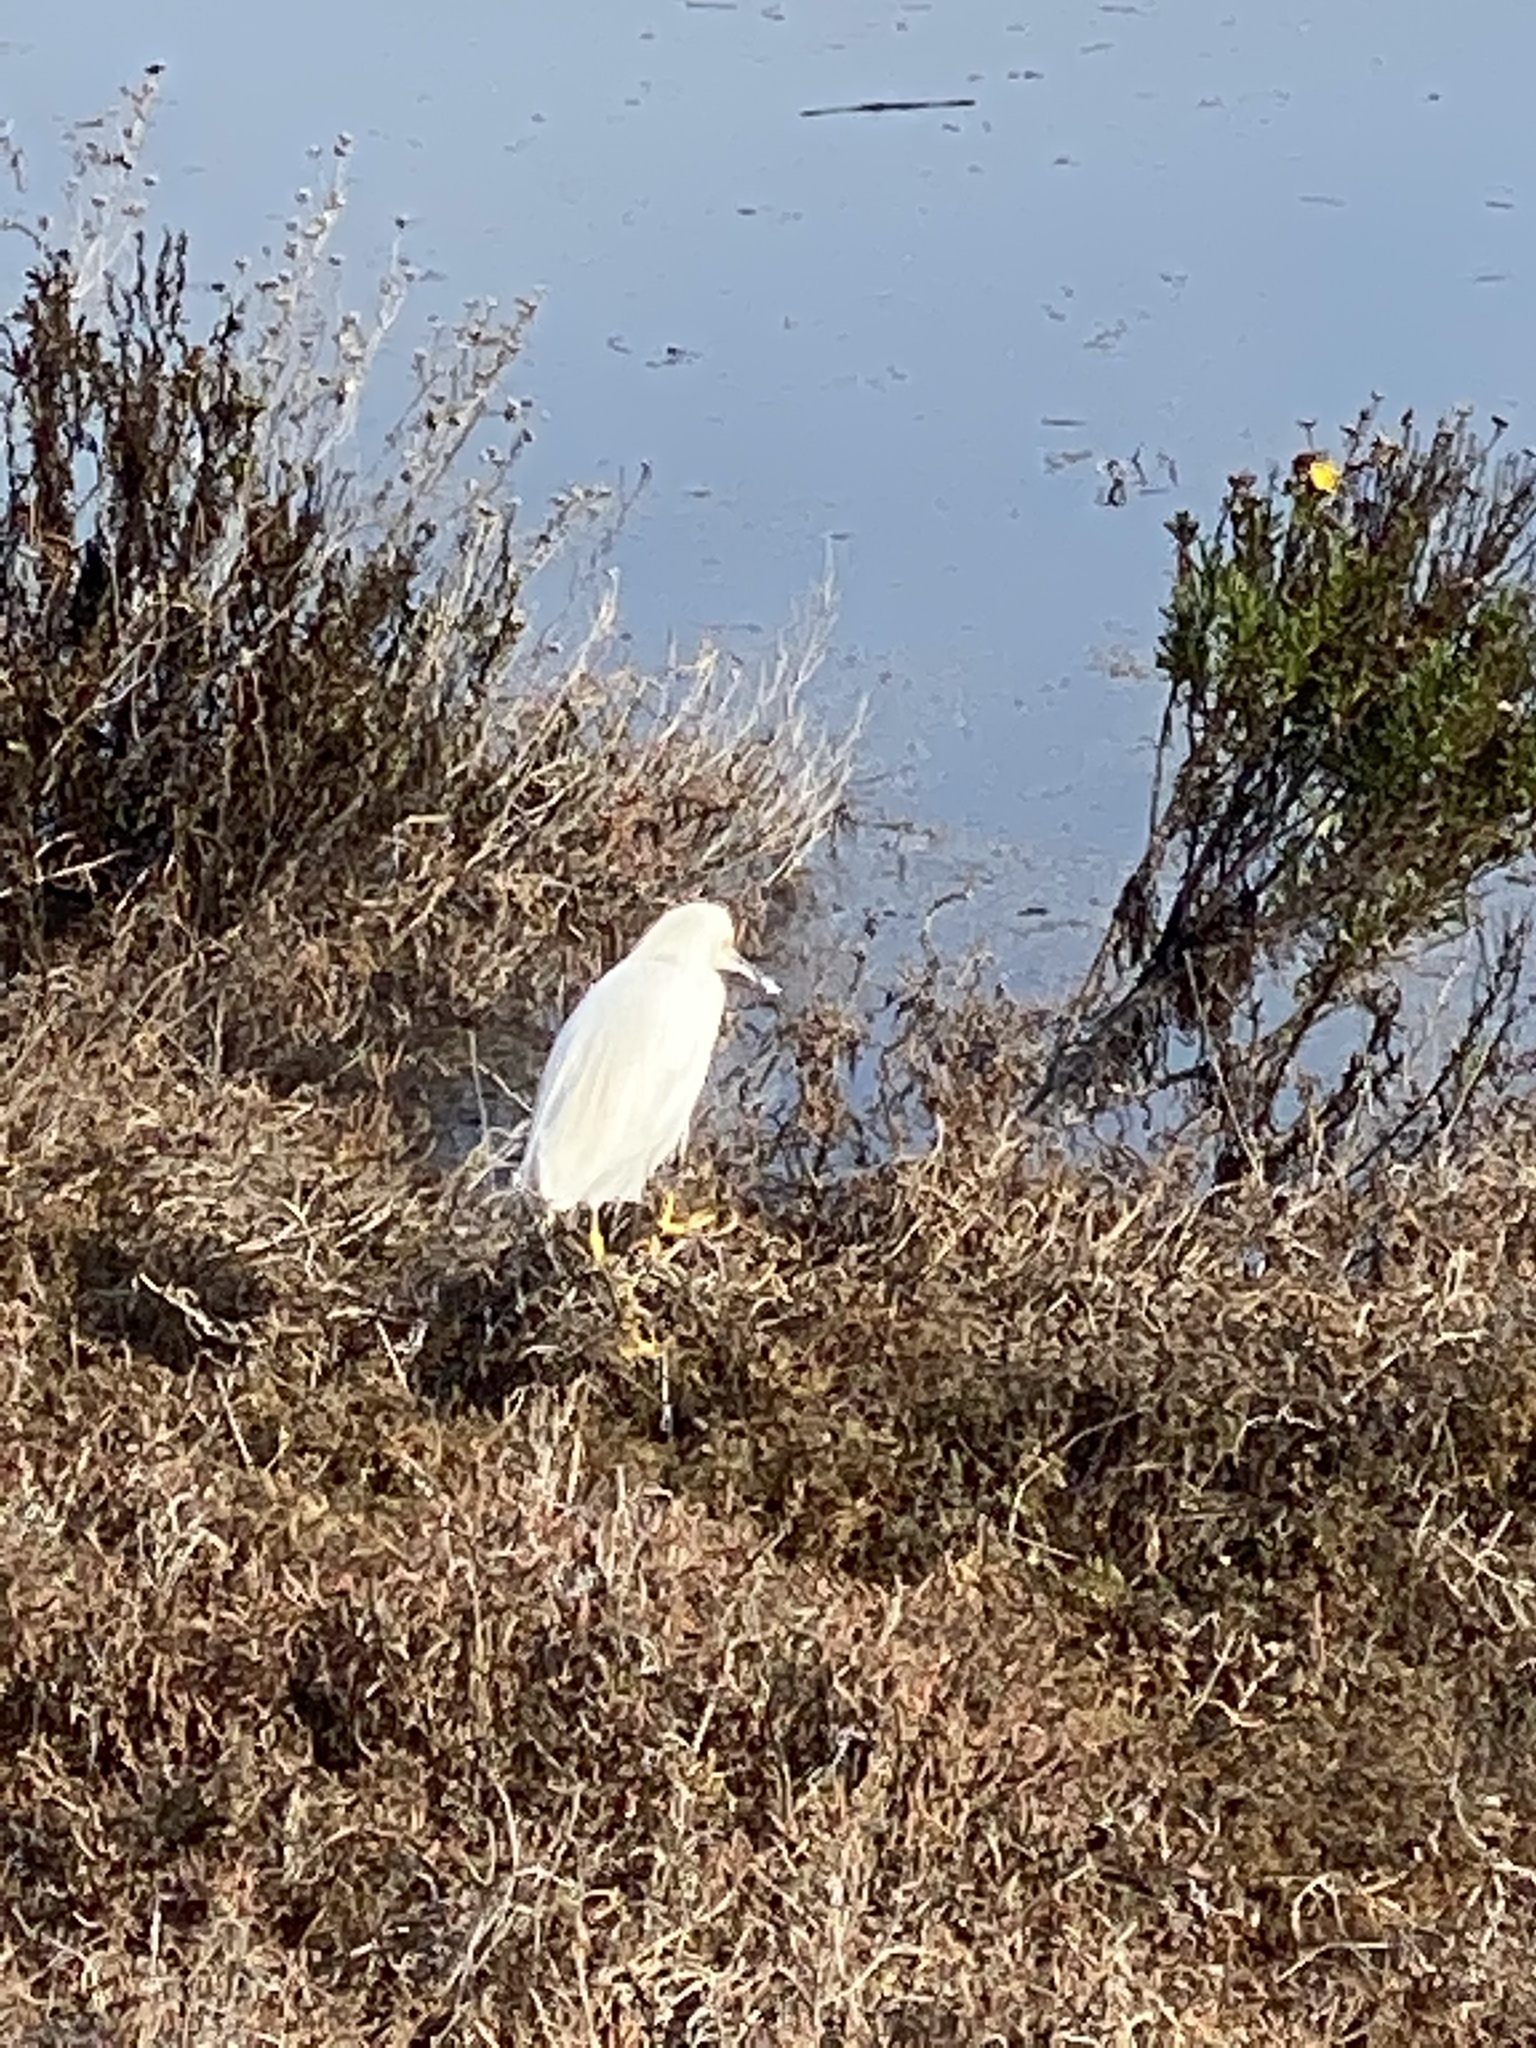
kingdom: Animalia
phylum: Chordata
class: Aves
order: Pelecaniformes
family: Ardeidae
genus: Egretta
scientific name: Egretta thula
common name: Snowy egret
